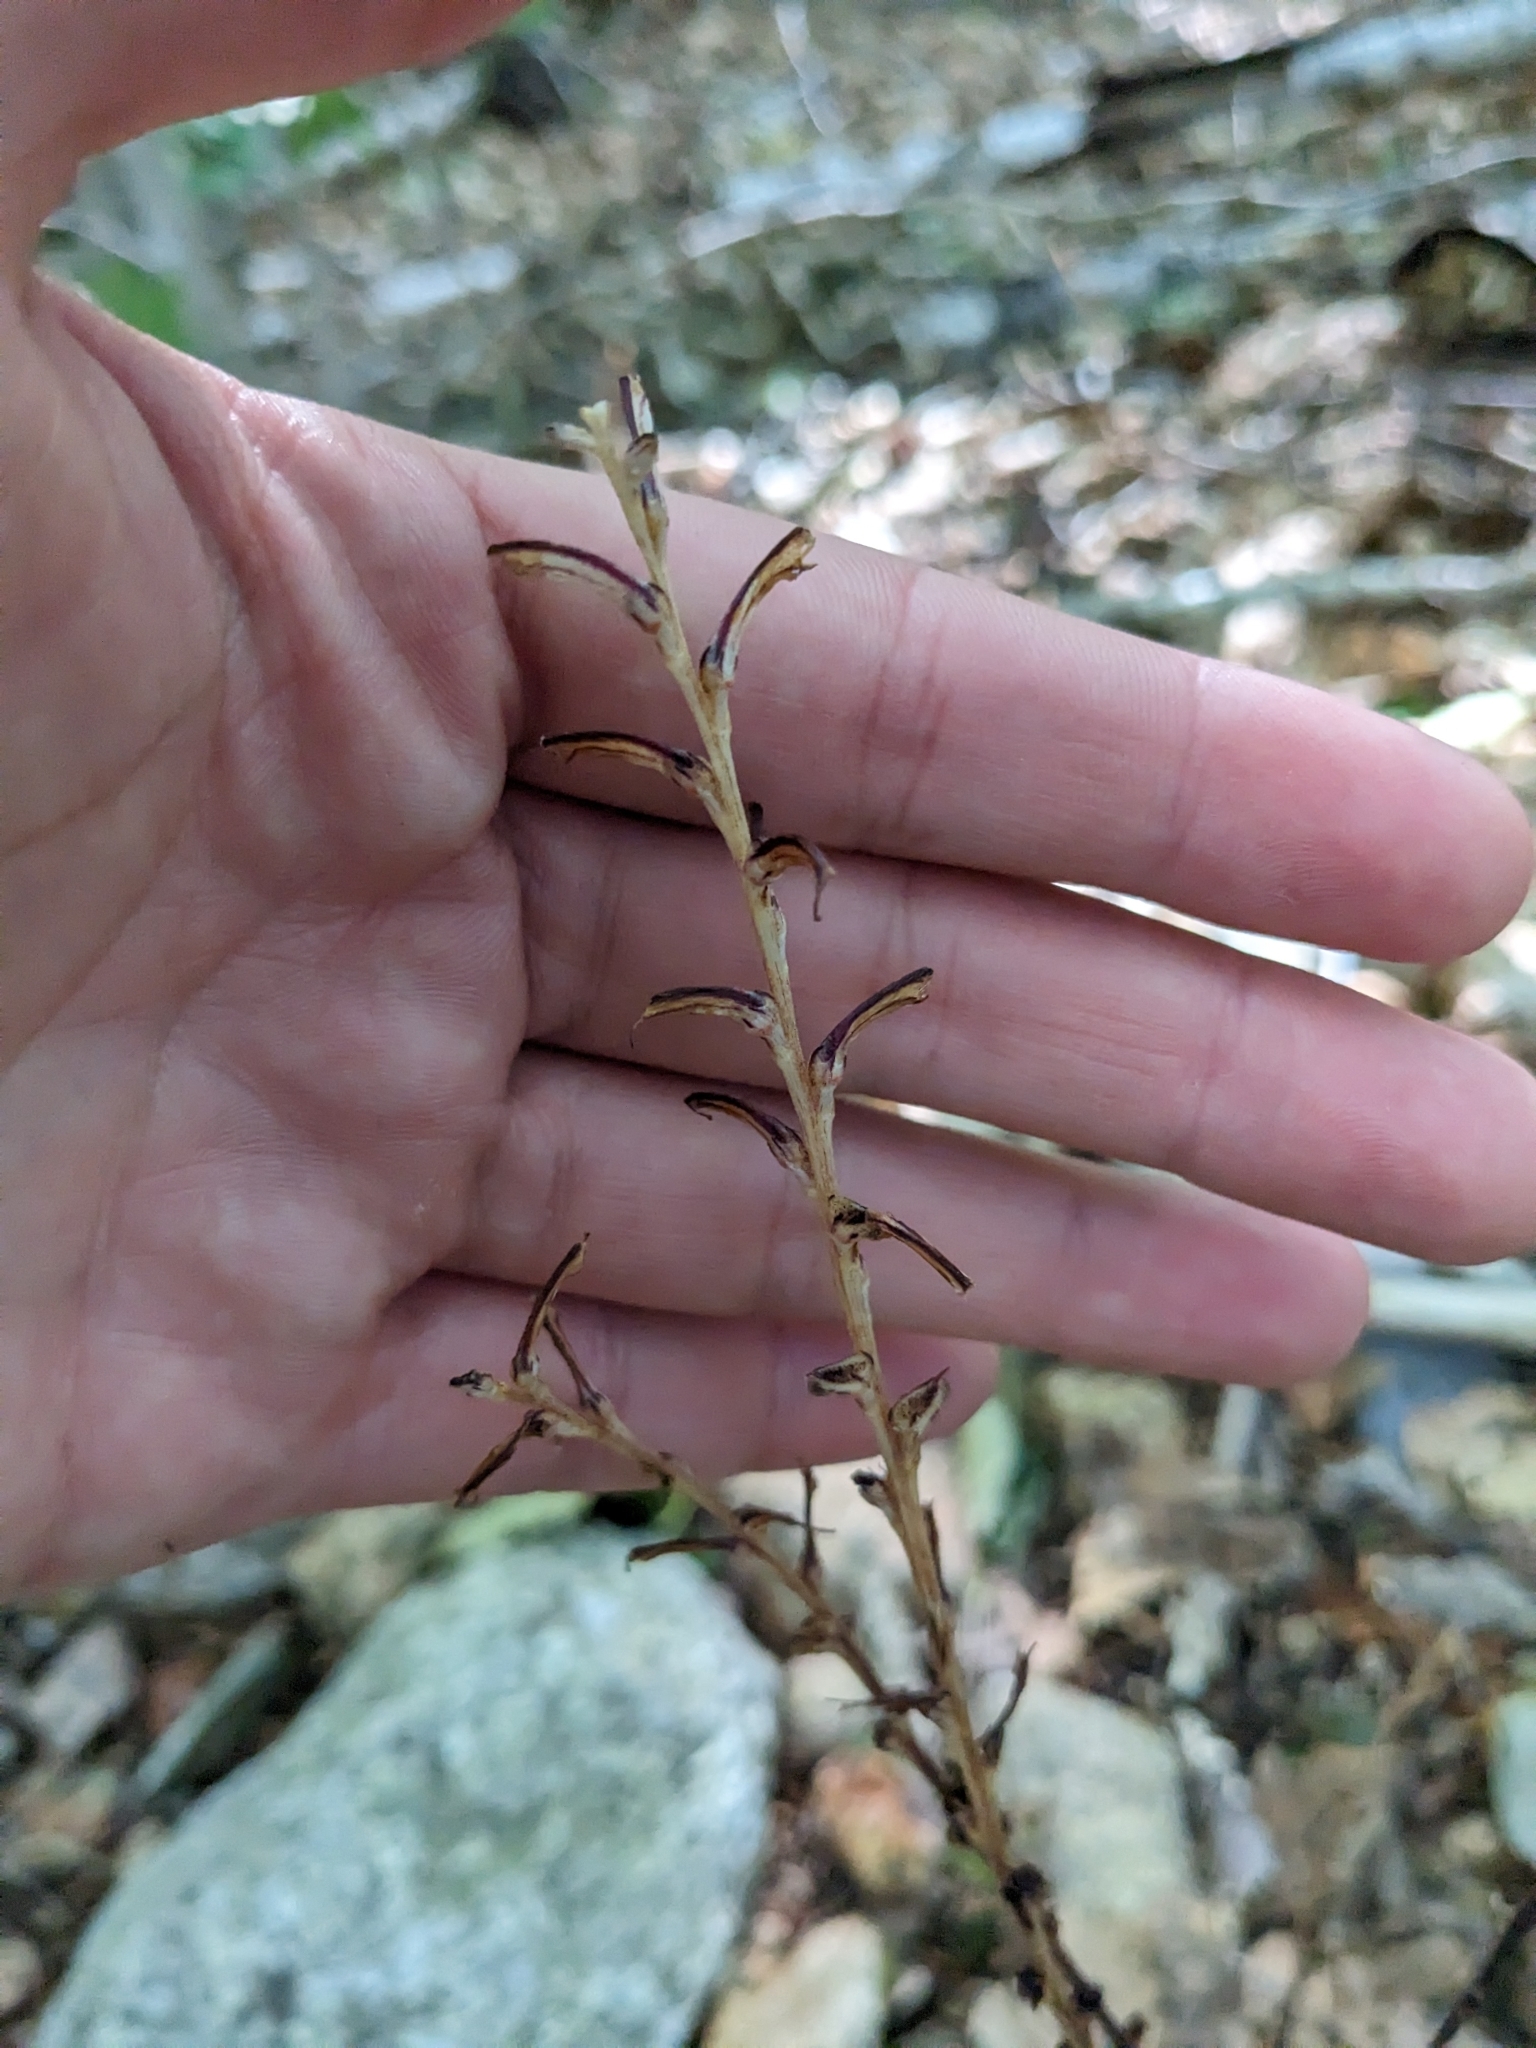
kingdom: Plantae
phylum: Tracheophyta
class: Magnoliopsida
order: Lamiales
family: Orobanchaceae
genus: Epifagus
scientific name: Epifagus virginiana
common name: Beechdrops
